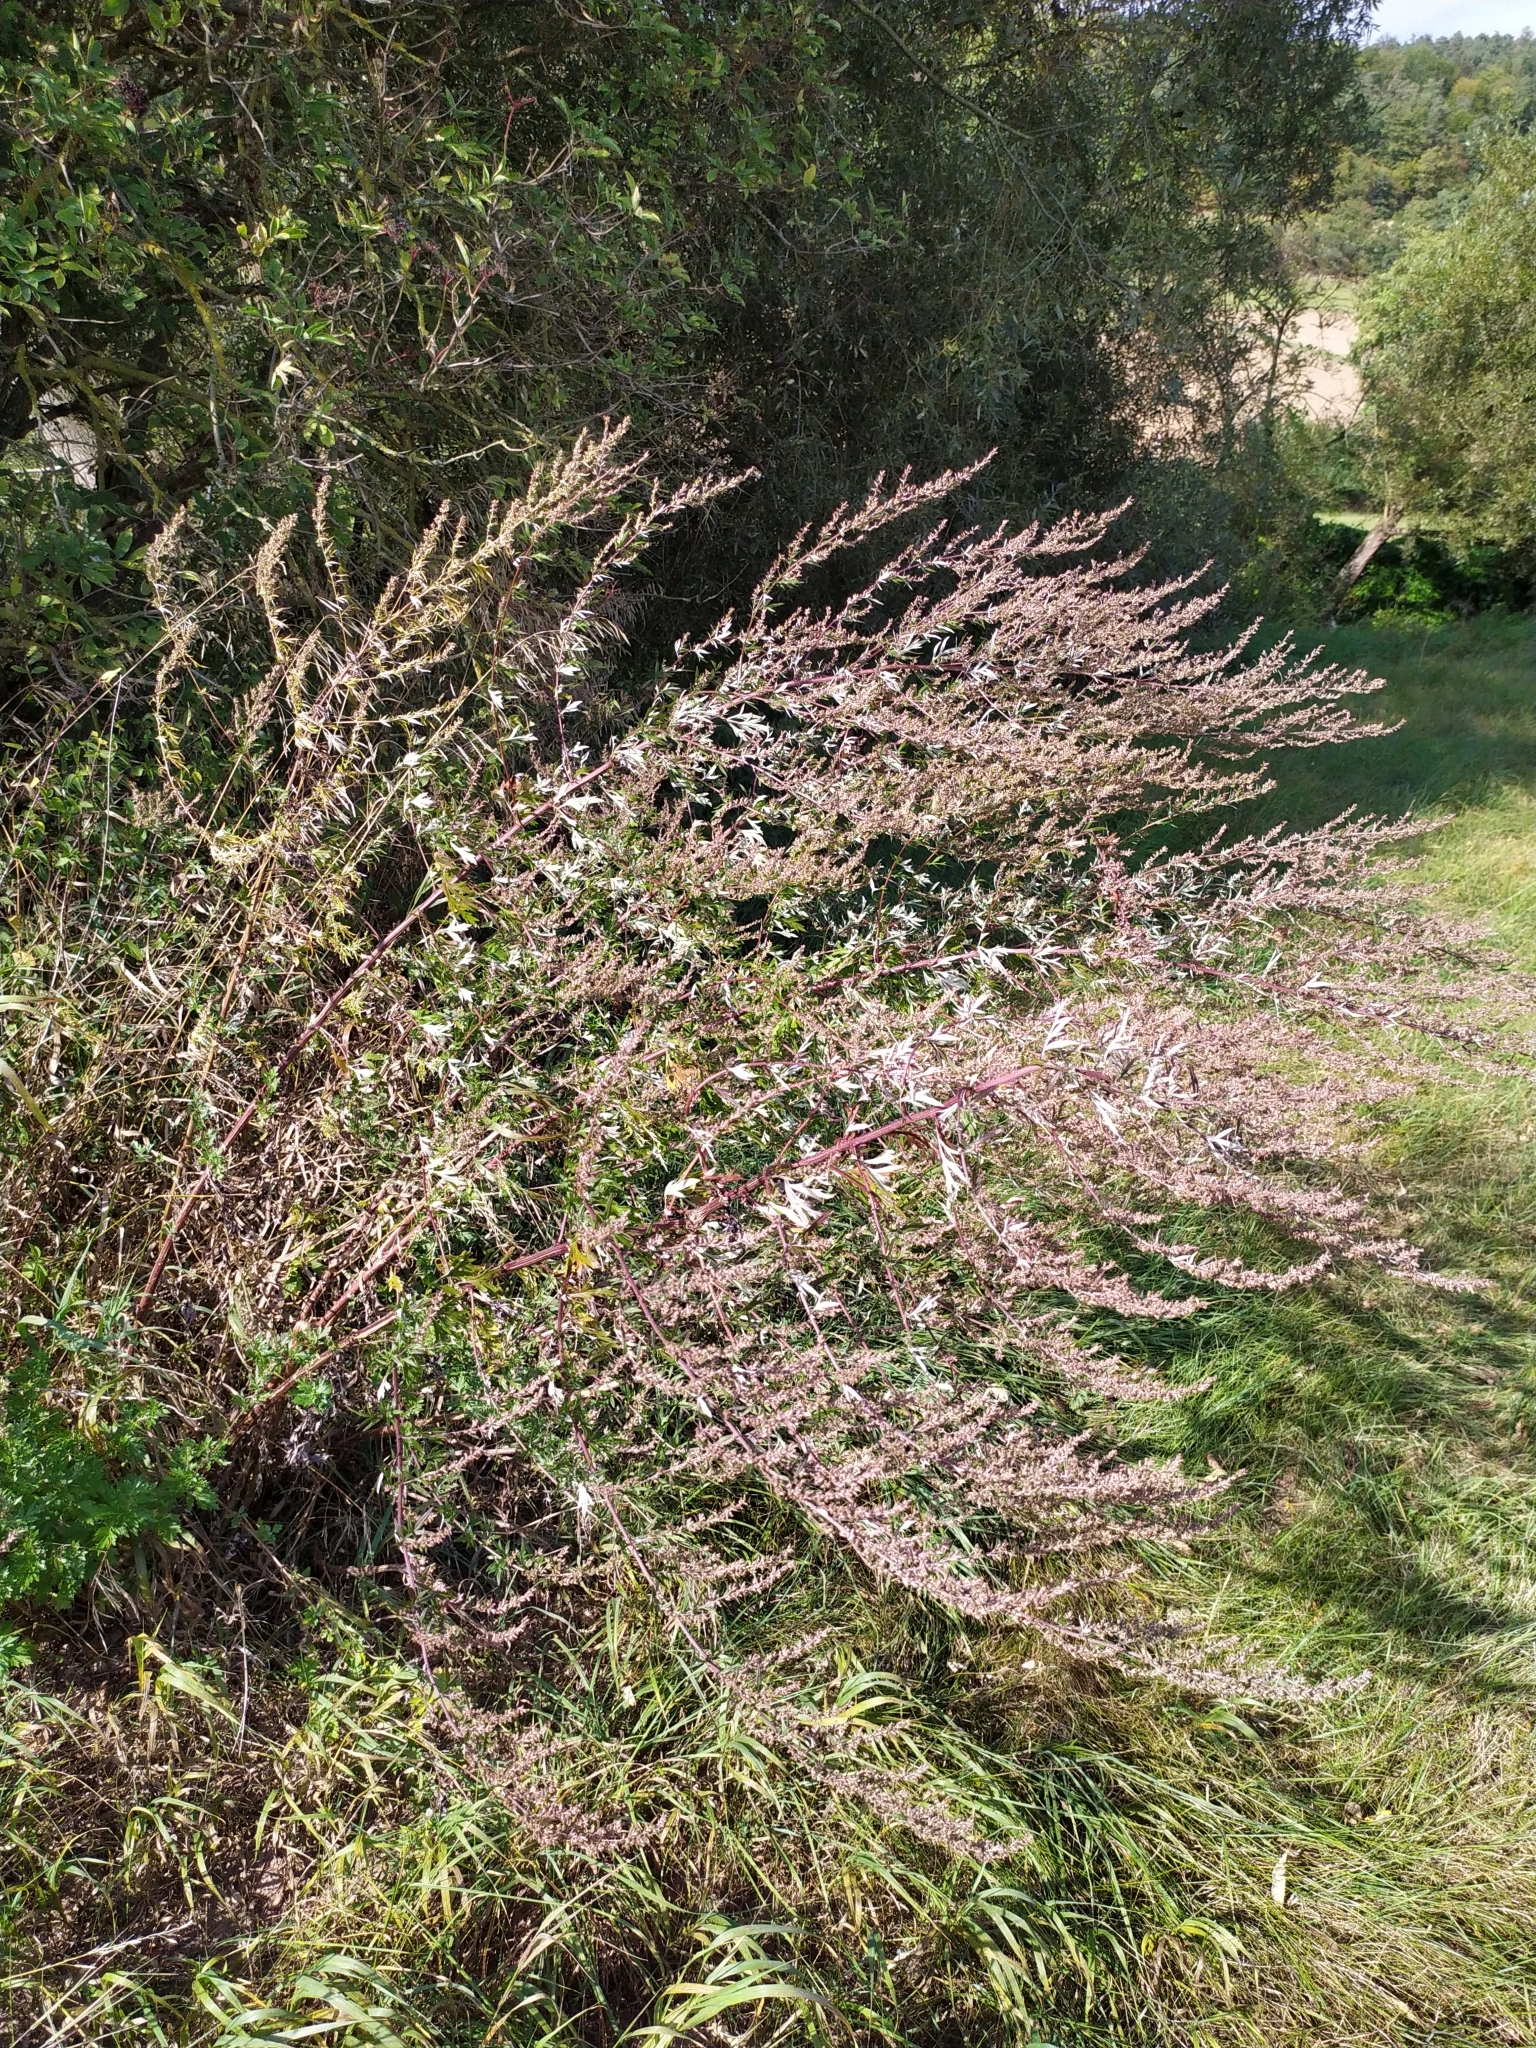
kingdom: Plantae
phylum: Tracheophyta
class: Magnoliopsida
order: Asterales
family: Asteraceae
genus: Artemisia
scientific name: Artemisia vulgaris
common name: Mugwort
